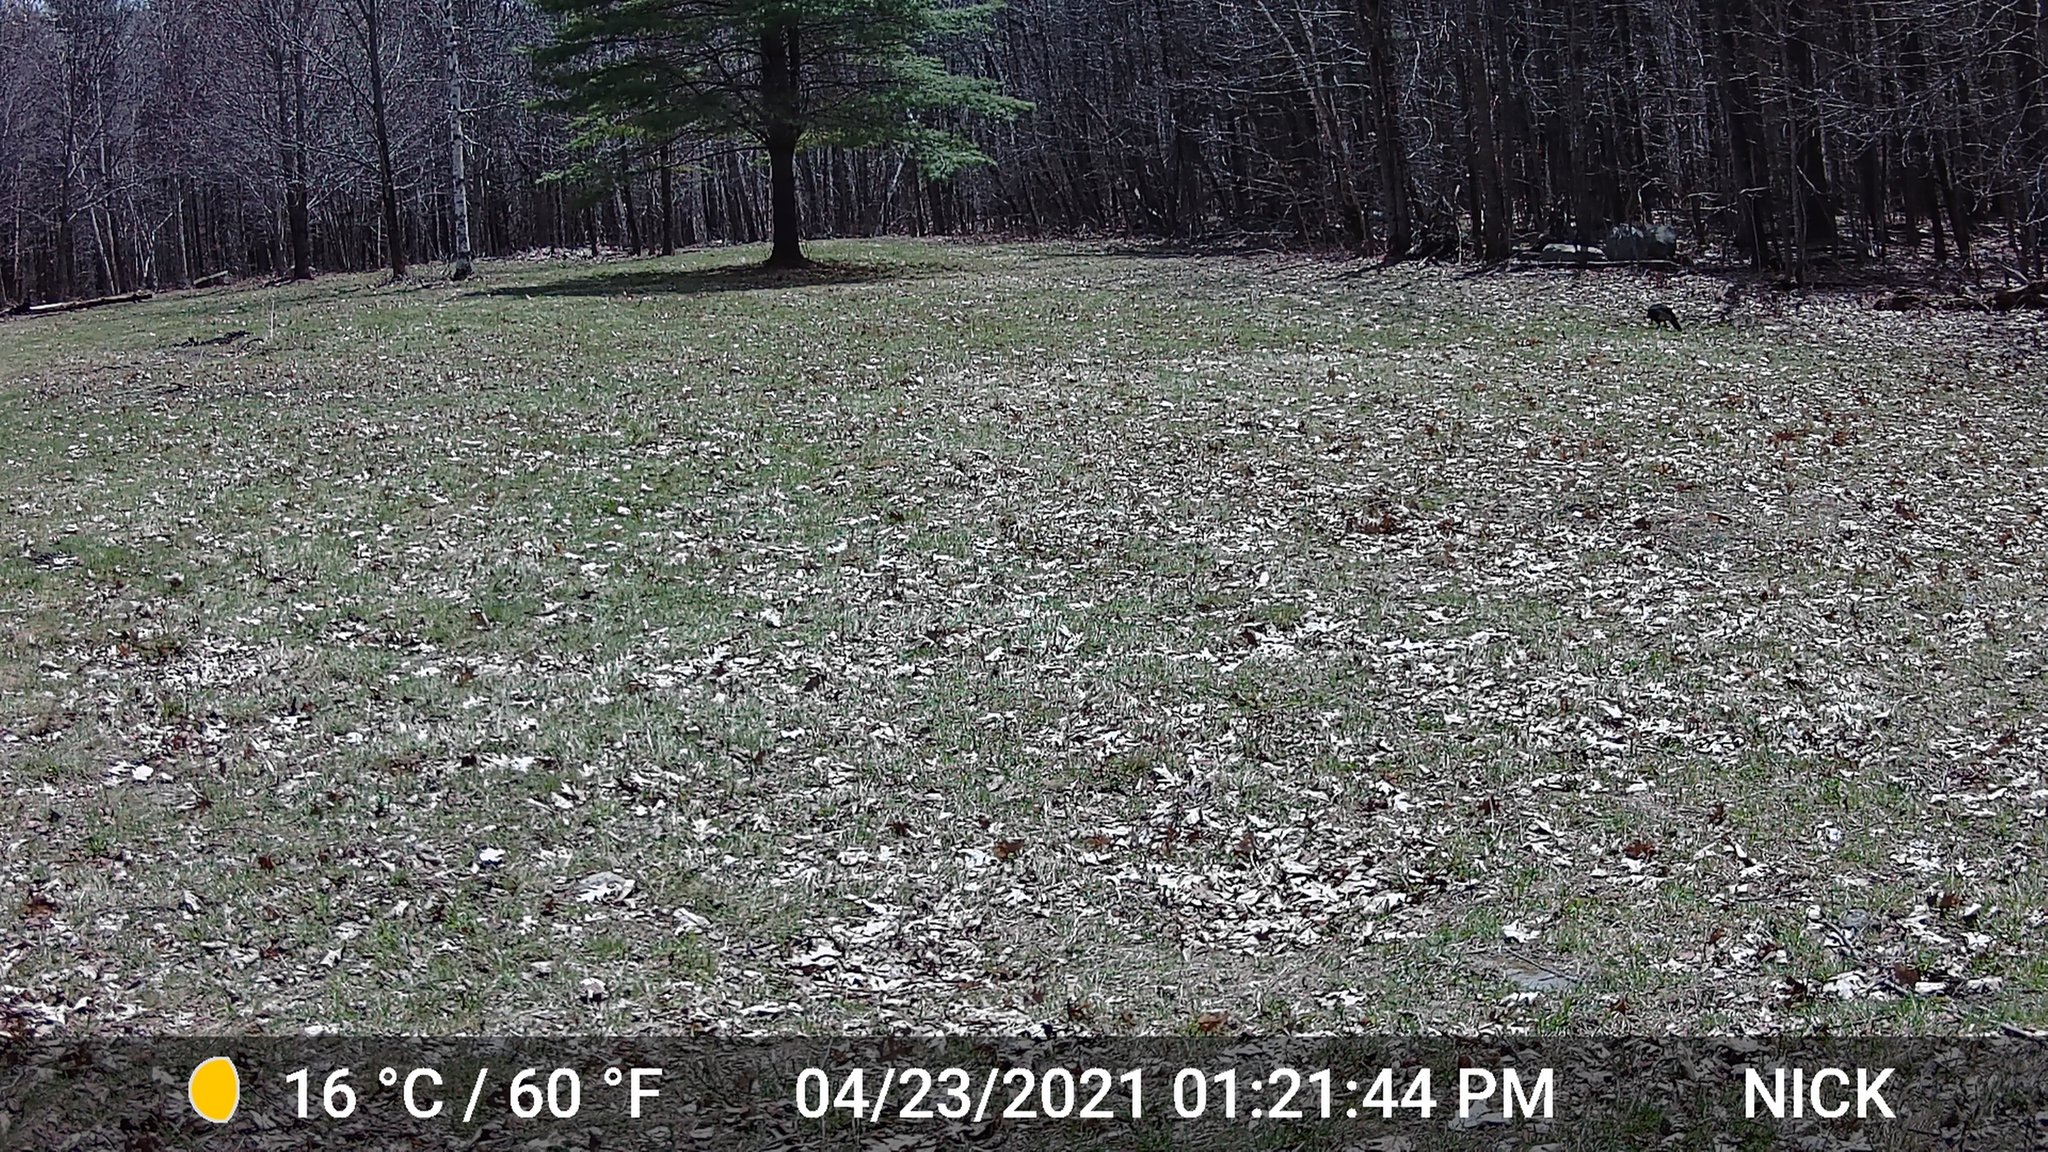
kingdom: Animalia
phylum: Chordata
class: Aves
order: Galliformes
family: Phasianidae
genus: Meleagris
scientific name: Meleagris gallopavo
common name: Wild turkey
